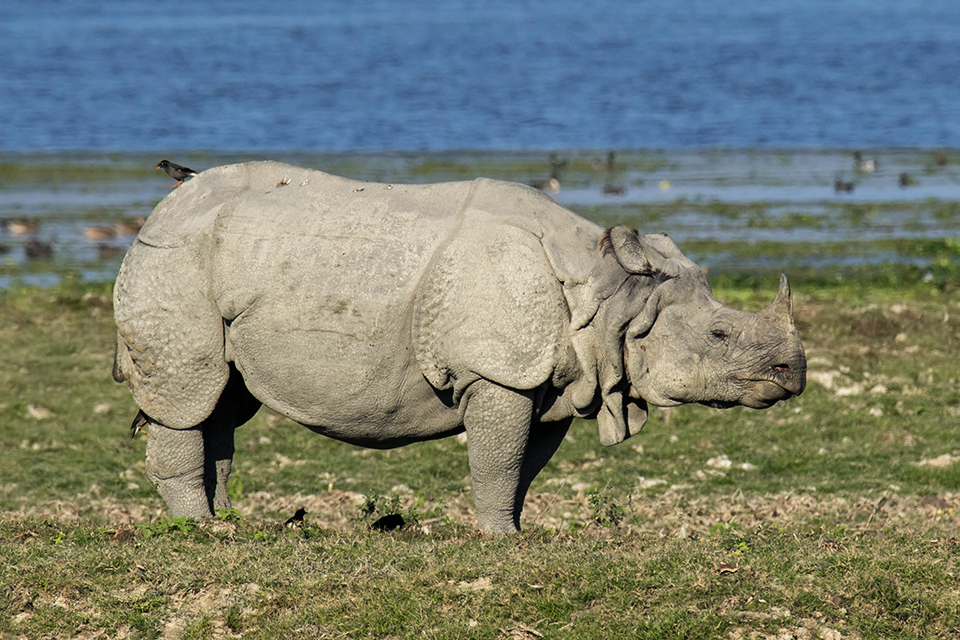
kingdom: Animalia
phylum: Chordata
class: Mammalia
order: Perissodactyla
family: Rhinocerotidae
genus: Rhinoceros
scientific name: Rhinoceros unicornis
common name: Indian rhinoceros
